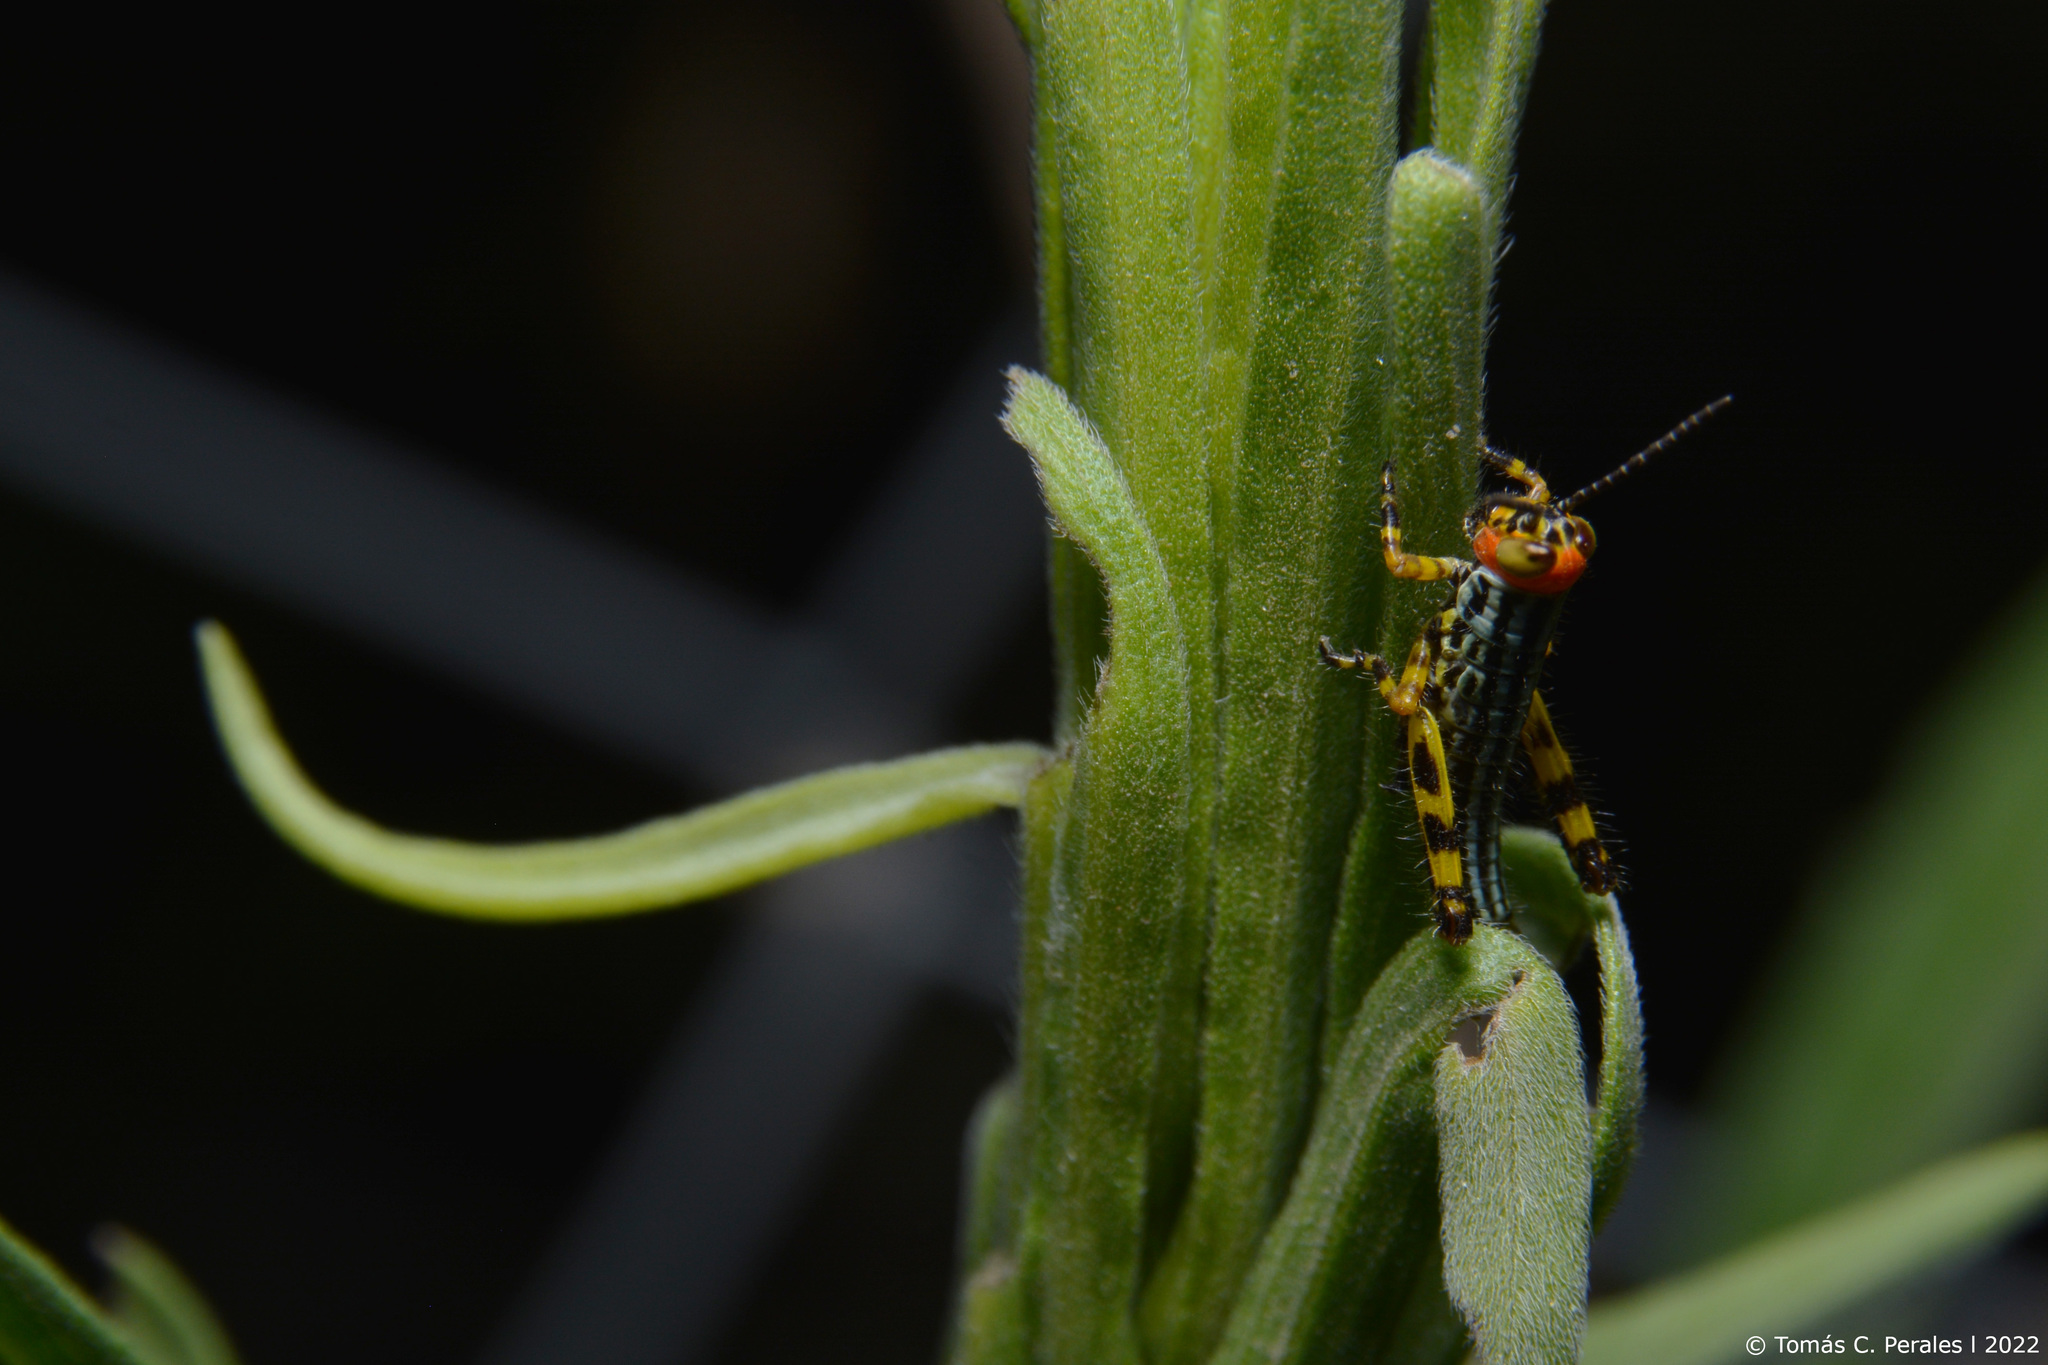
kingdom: Animalia
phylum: Arthropoda
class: Insecta
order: Orthoptera
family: Romaleidae
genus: Zoniopoda
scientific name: Zoniopoda tarsata
